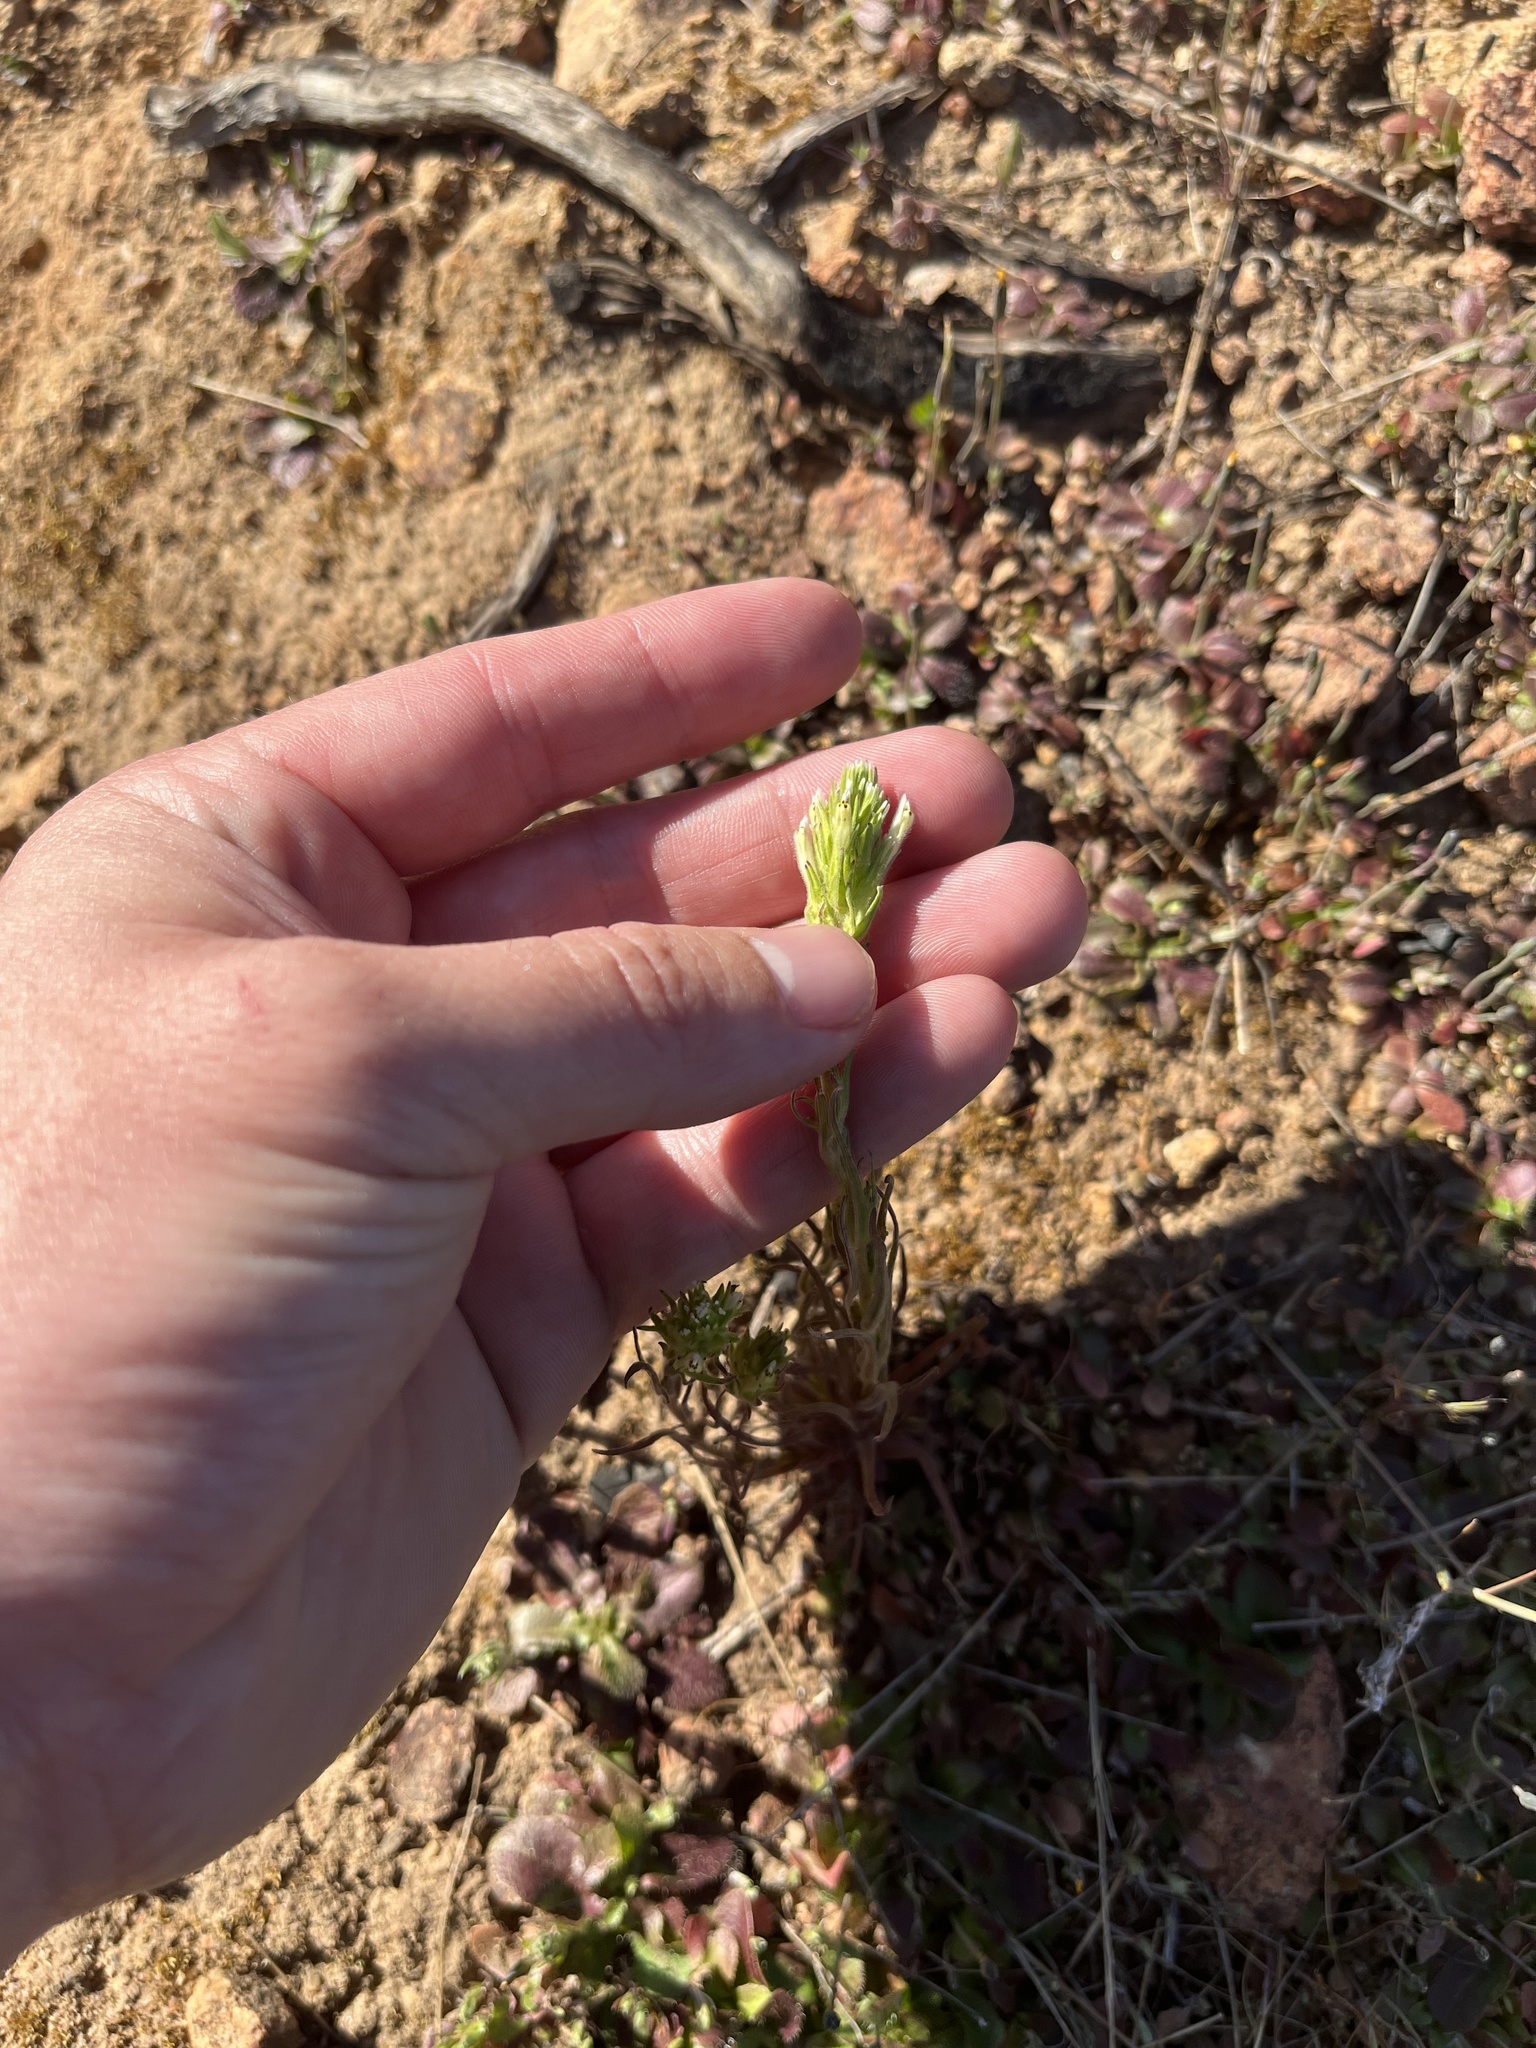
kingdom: Plantae
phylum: Tracheophyta
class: Magnoliopsida
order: Lamiales
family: Orobanchaceae
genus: Castilleja
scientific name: Castilleja attenuata
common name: Valley tassels
